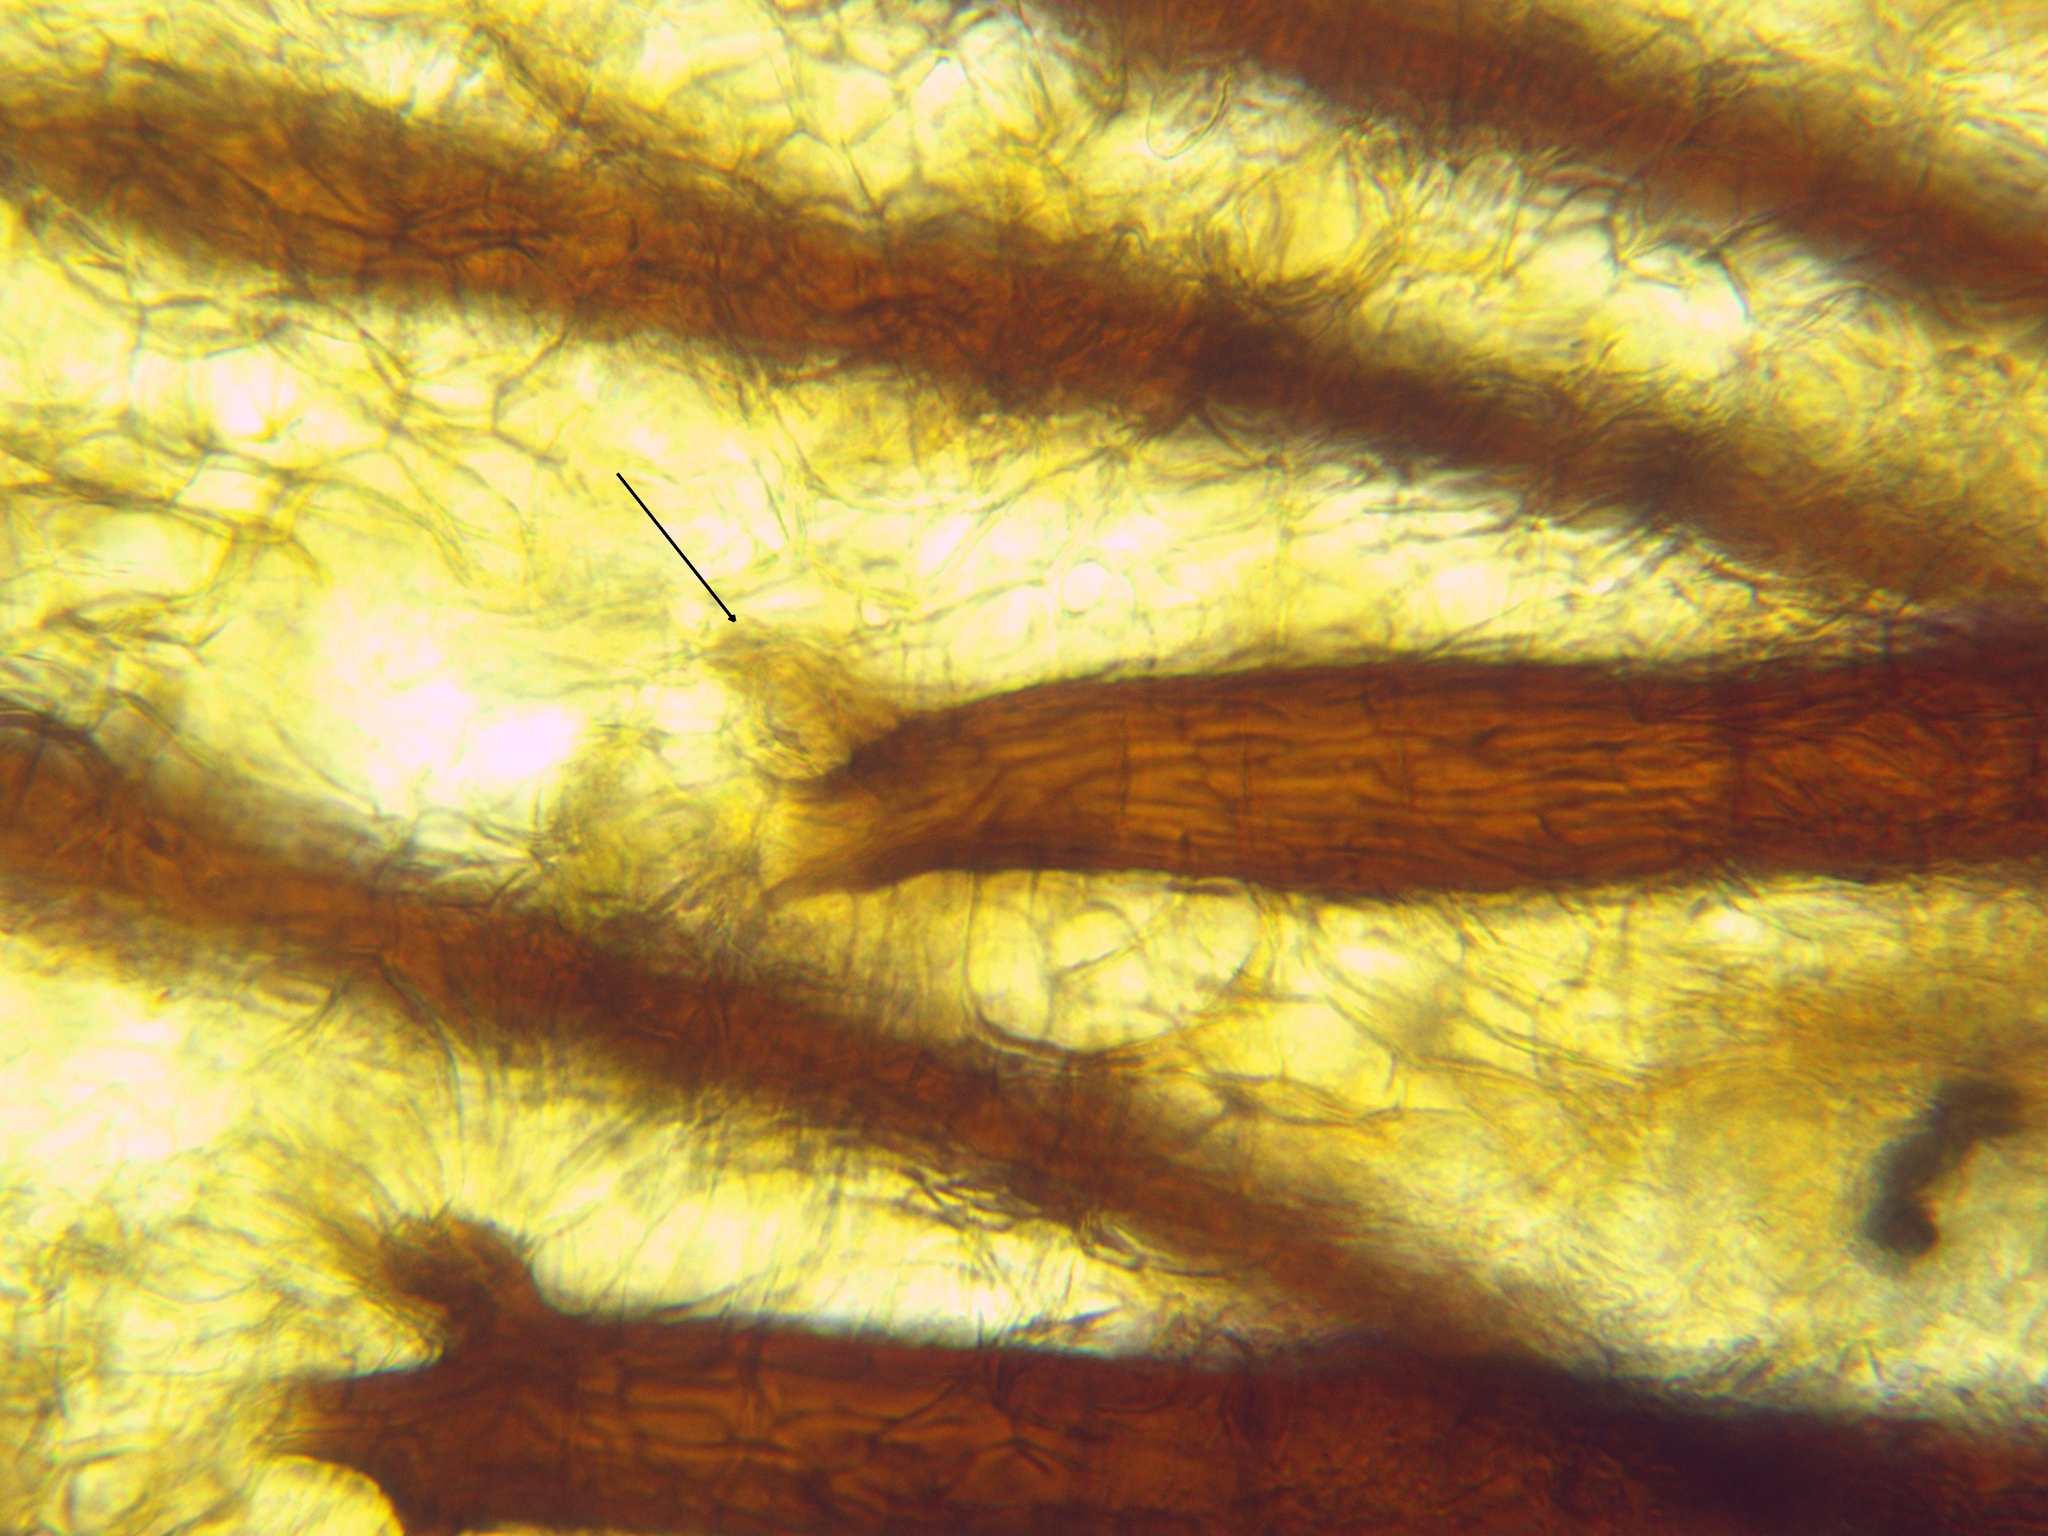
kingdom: Fungi
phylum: Ascomycota
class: Pezizomycetes
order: Pezizales
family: Pyronemataceae
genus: Scutellinia
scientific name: Scutellinia olivascens
